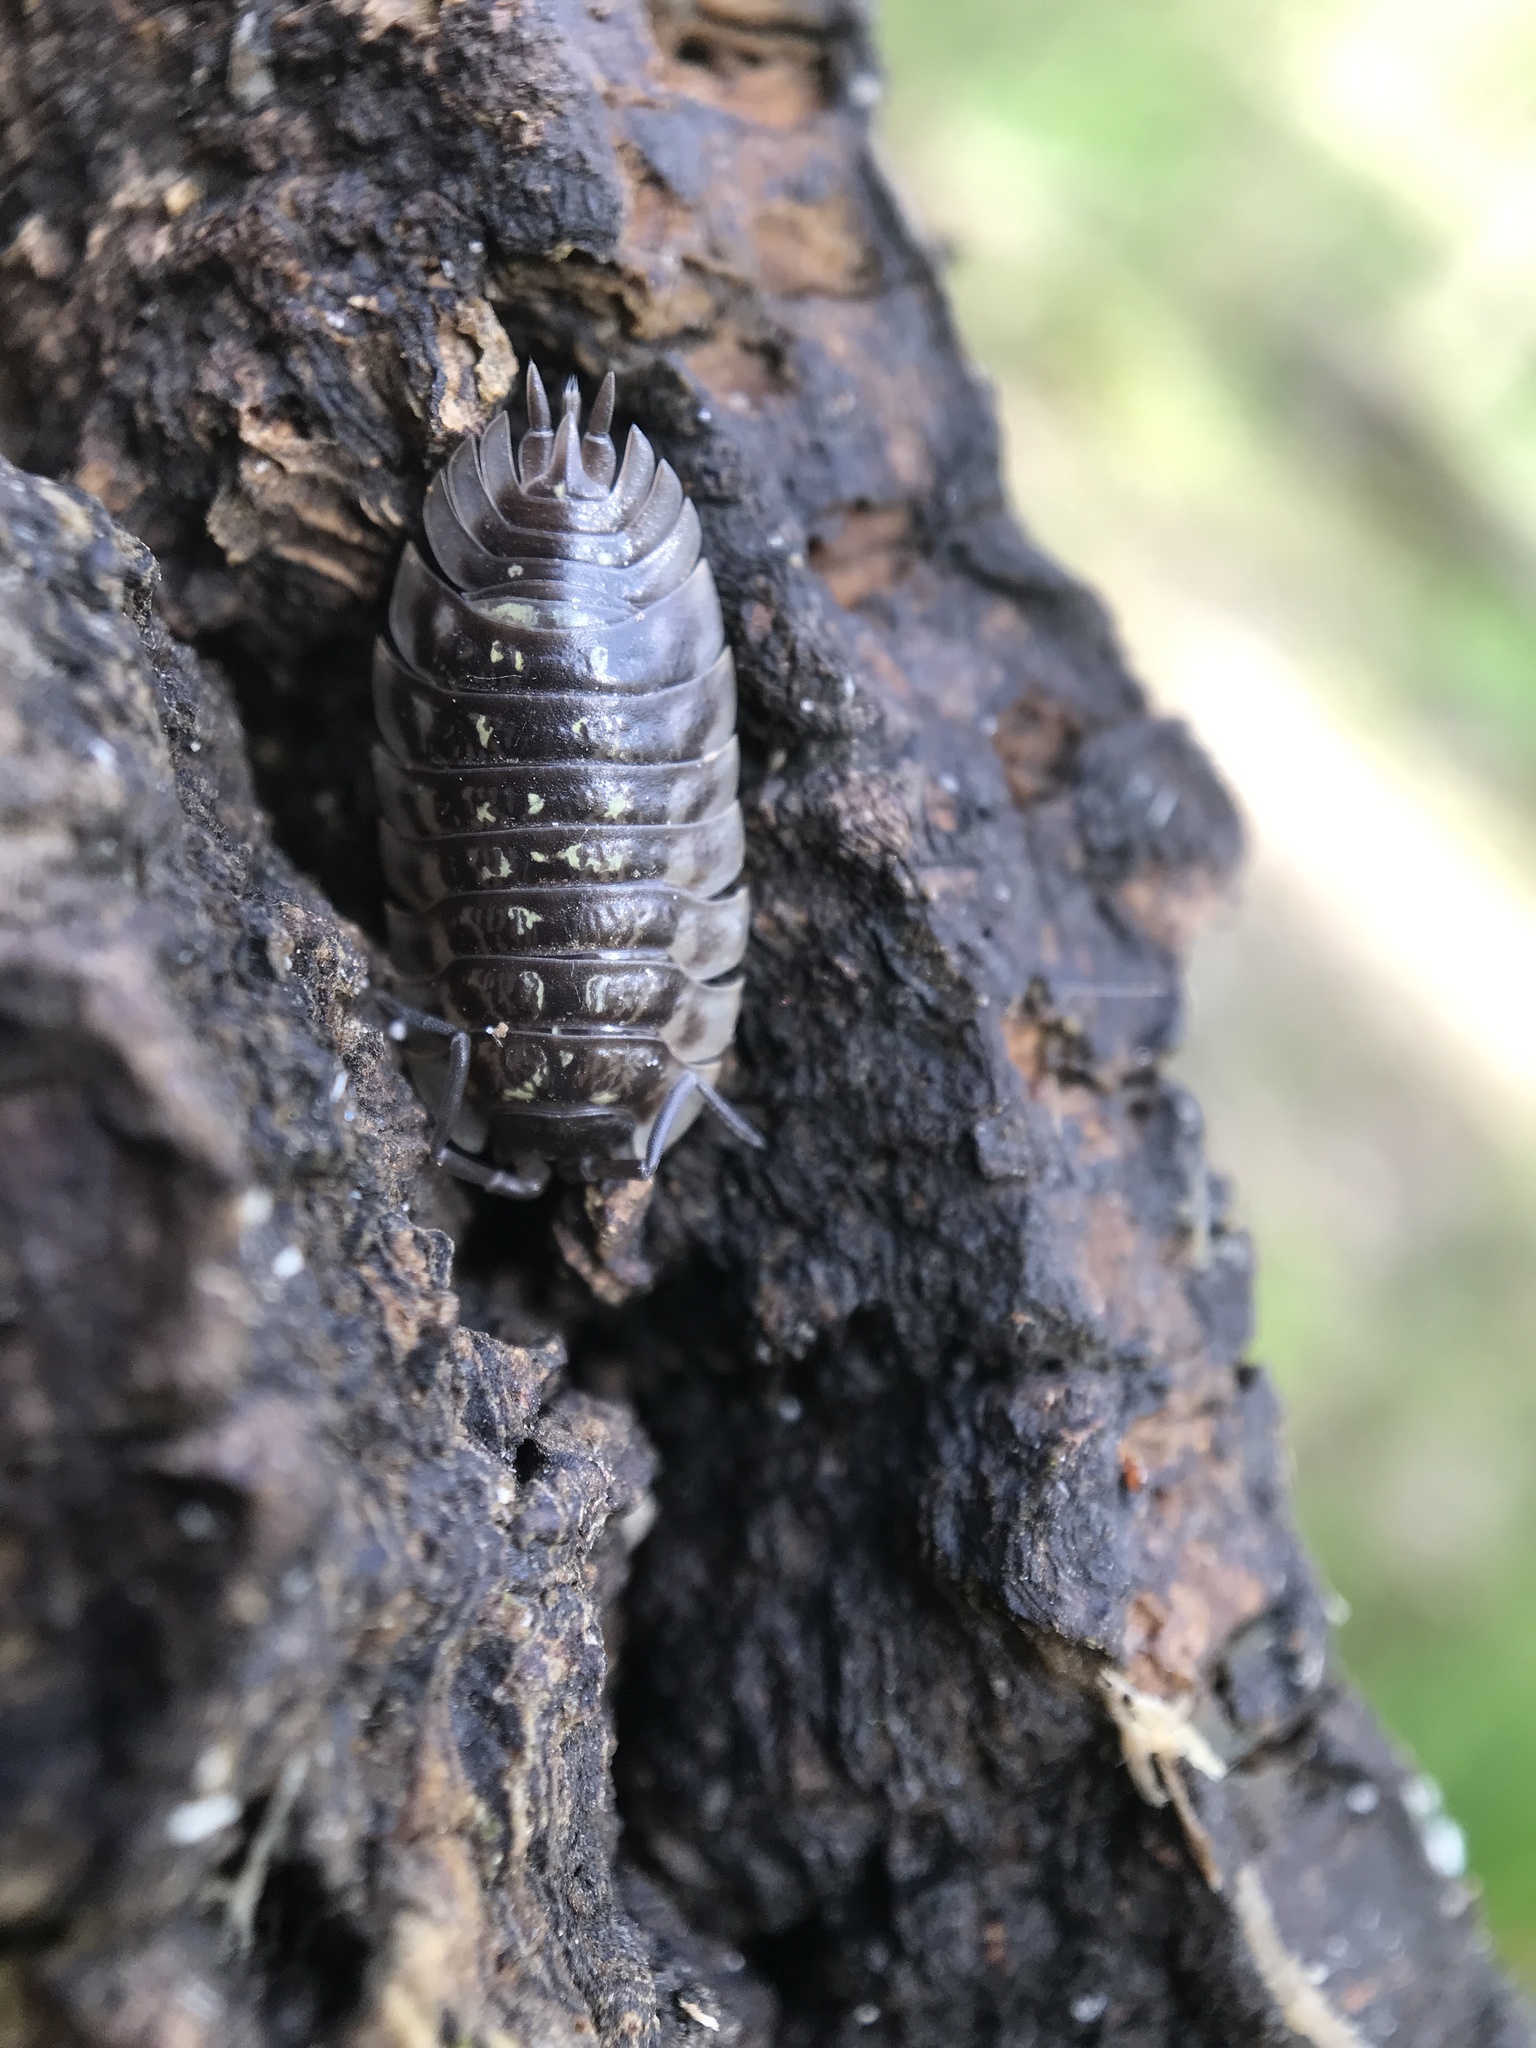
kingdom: Animalia
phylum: Arthropoda
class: Malacostraca
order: Isopoda
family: Oniscidae
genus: Oniscus
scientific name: Oniscus asellus
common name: Common shiny woodlouse
